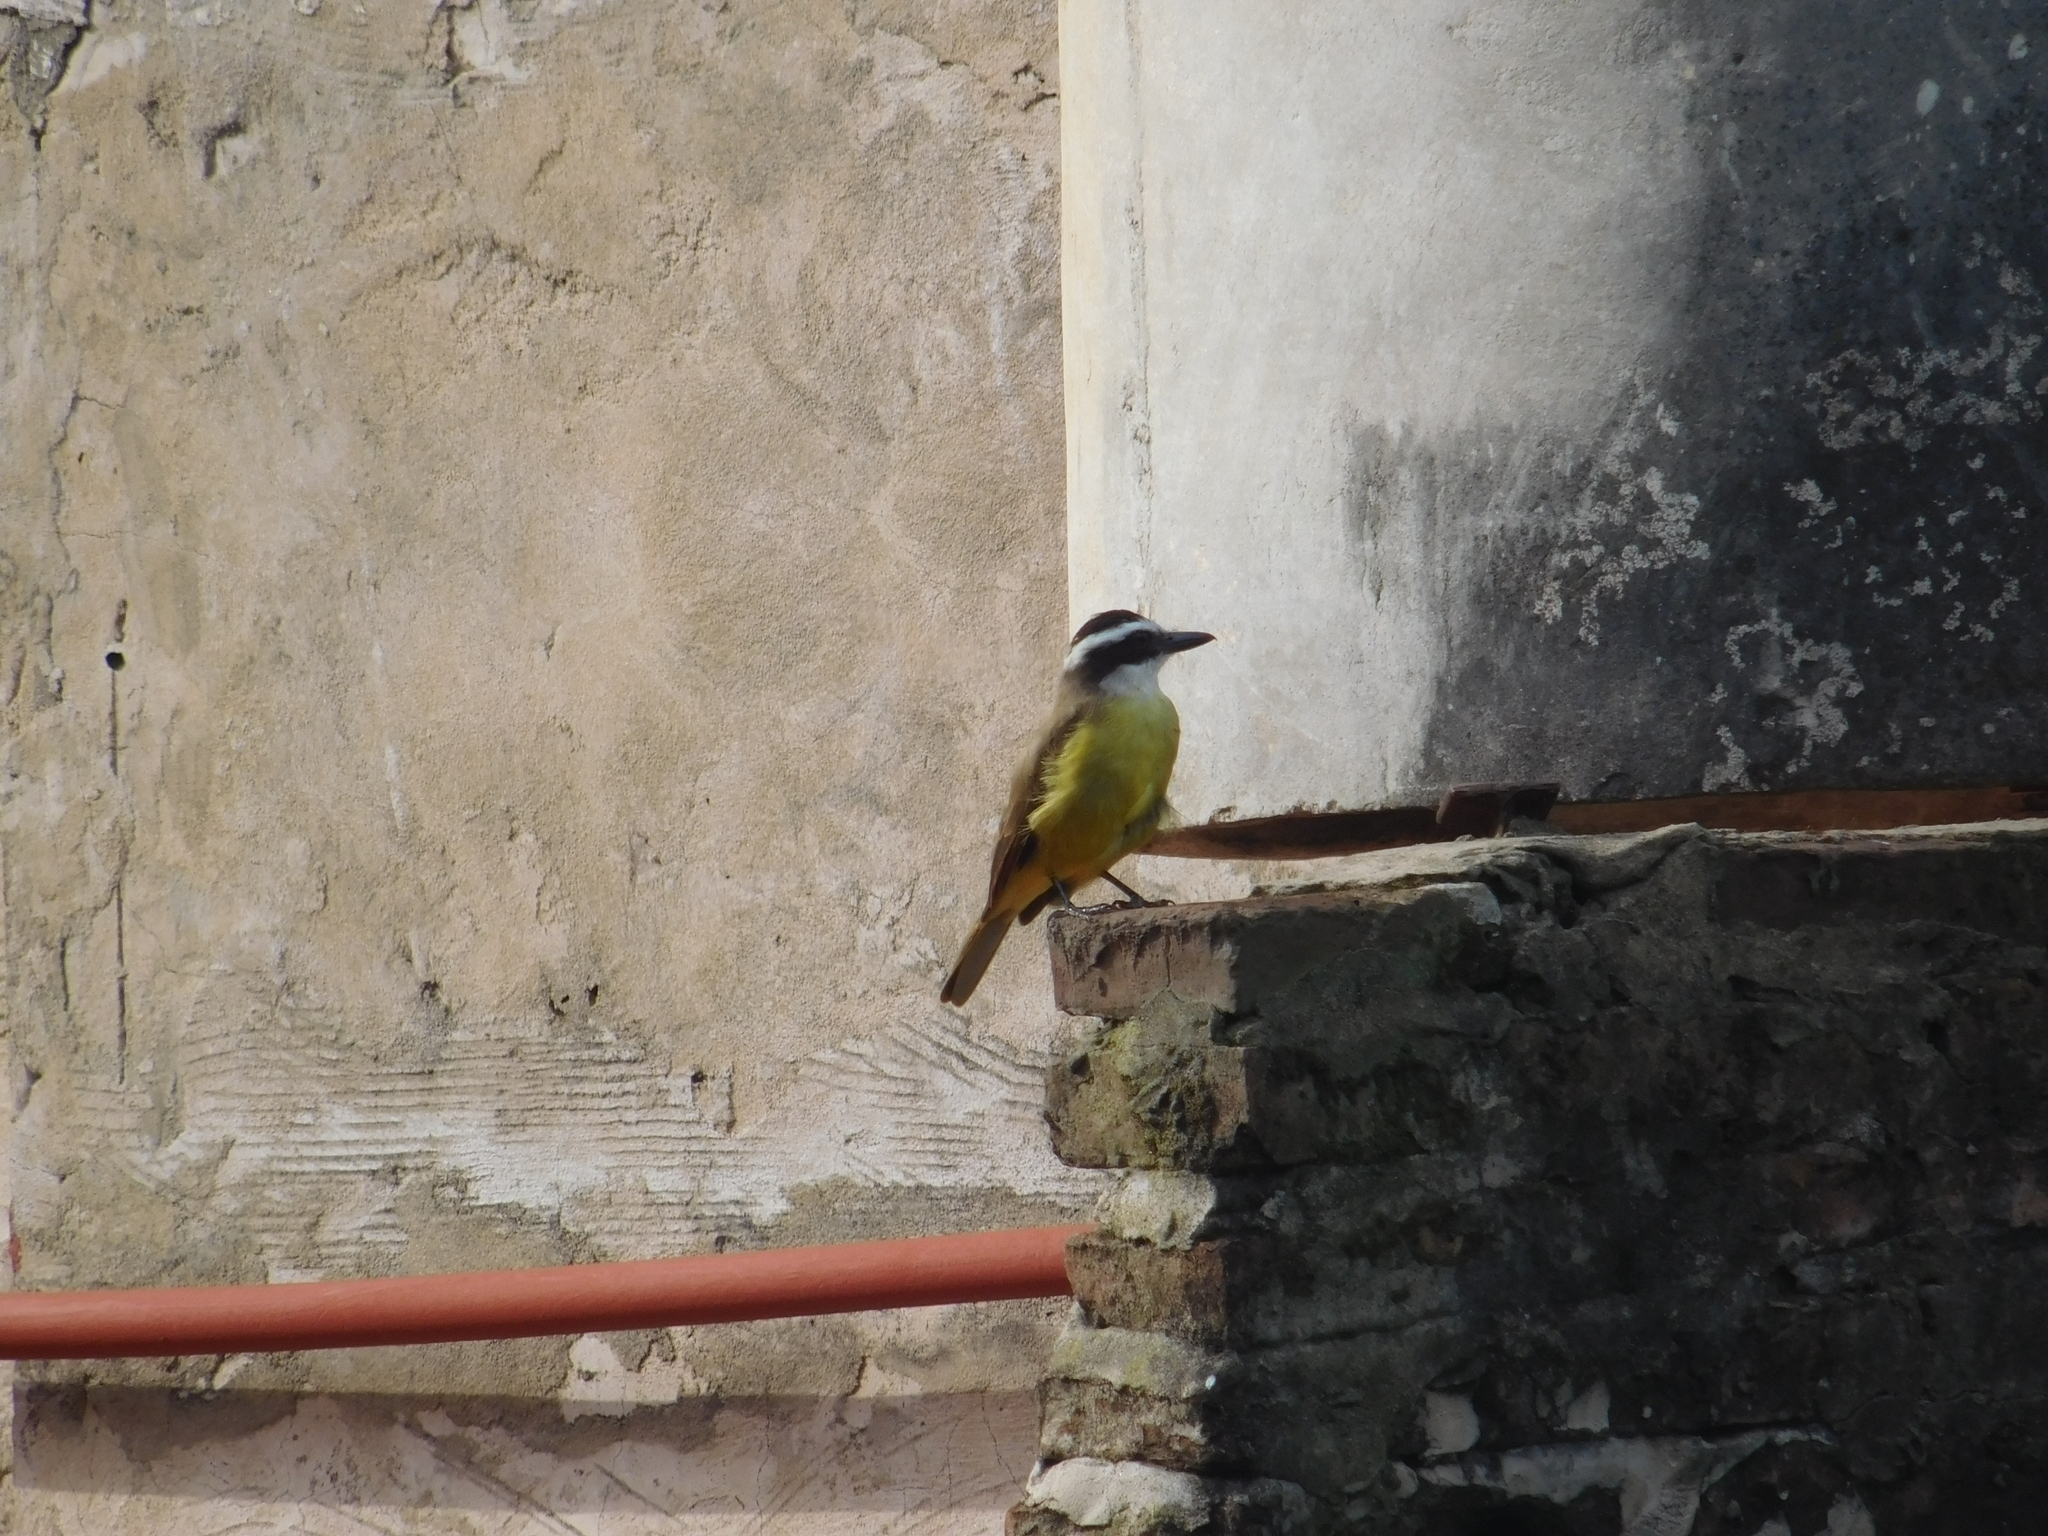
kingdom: Animalia
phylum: Chordata
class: Aves
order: Passeriformes
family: Tyrannidae
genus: Pitangus
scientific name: Pitangus sulphuratus
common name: Great kiskadee
